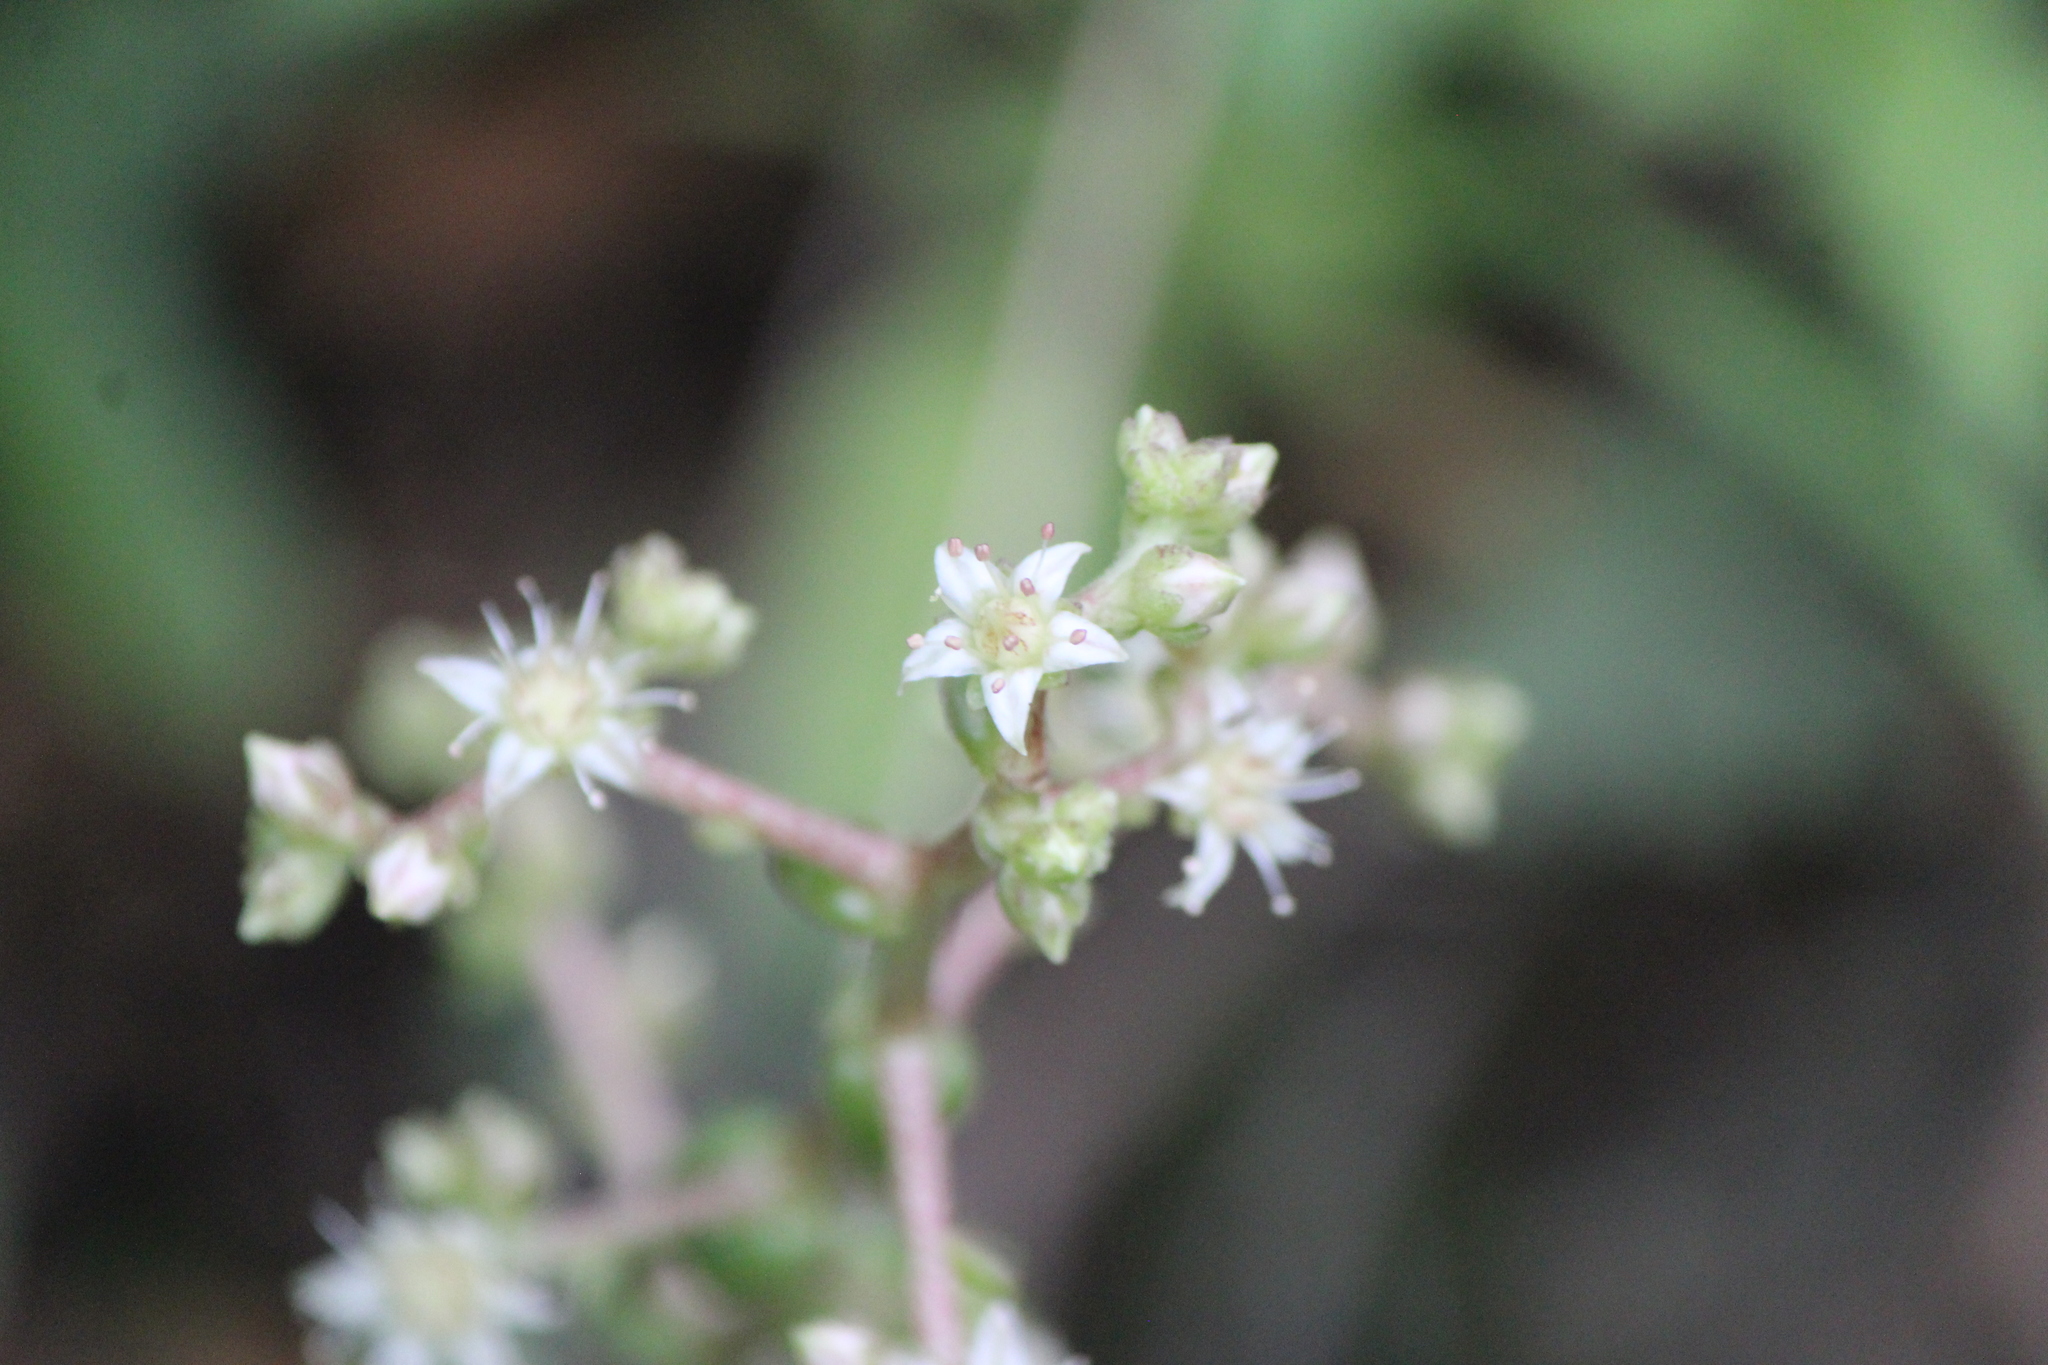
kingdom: Plantae
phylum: Tracheophyta
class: Magnoliopsida
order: Saxifragales
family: Crassulaceae
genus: Sedum
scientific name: Sedum ebracteatum
